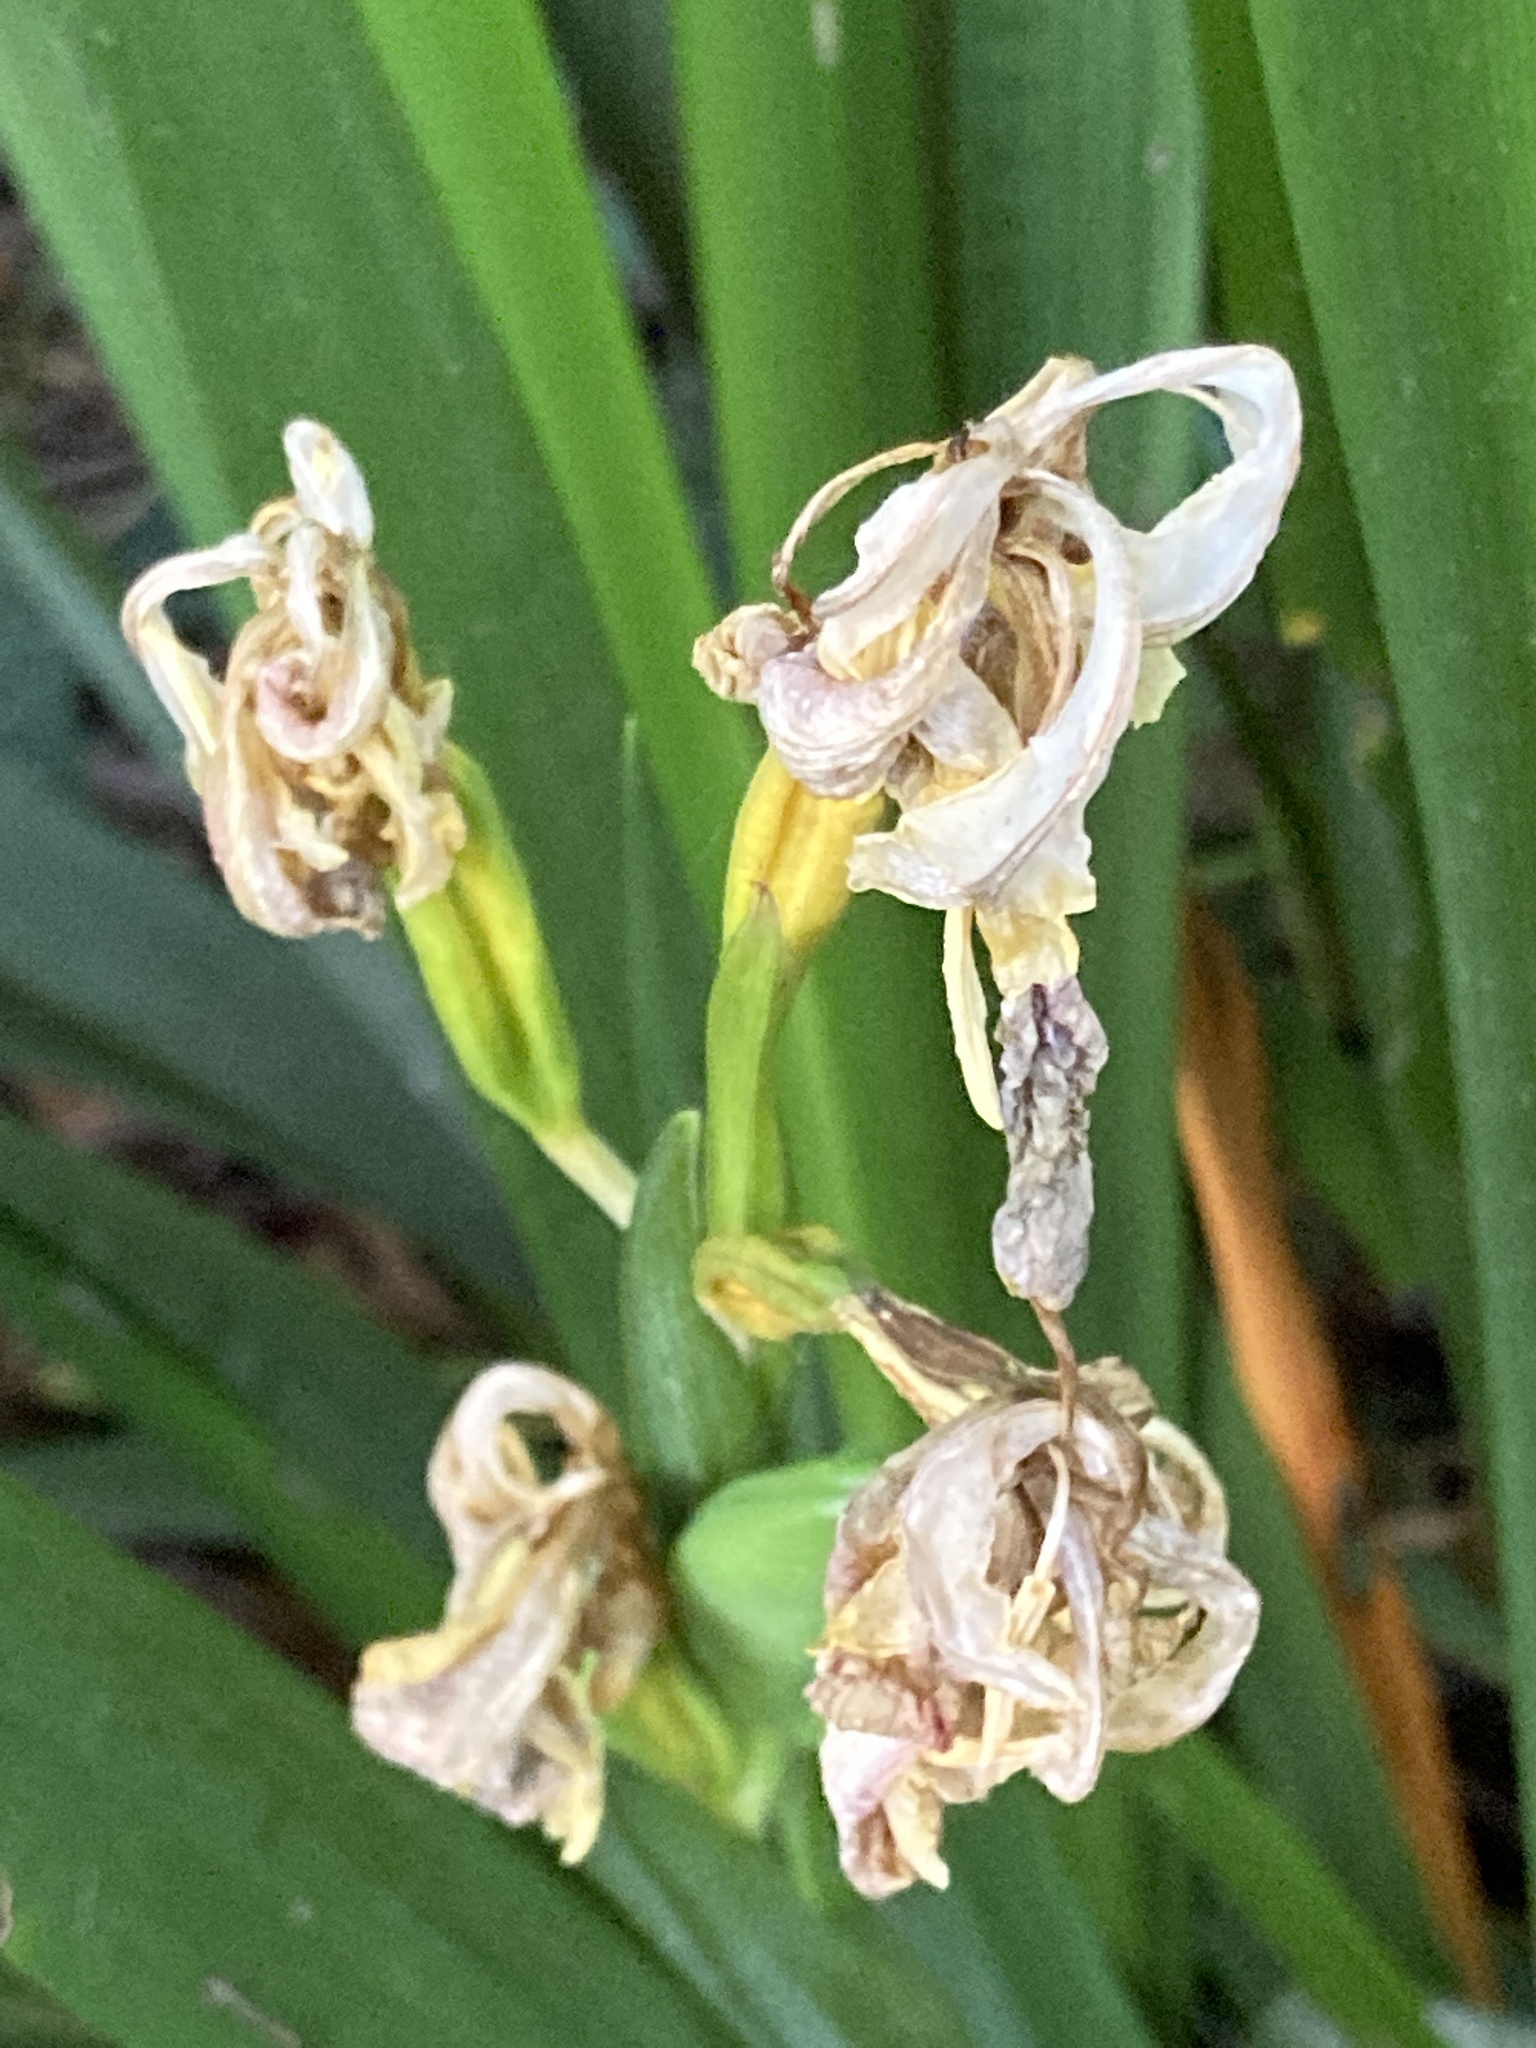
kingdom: Plantae
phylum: Tracheophyta
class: Liliopsida
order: Asparagales
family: Iridaceae
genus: Iris
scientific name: Iris foetidissima
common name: Stinking iris
